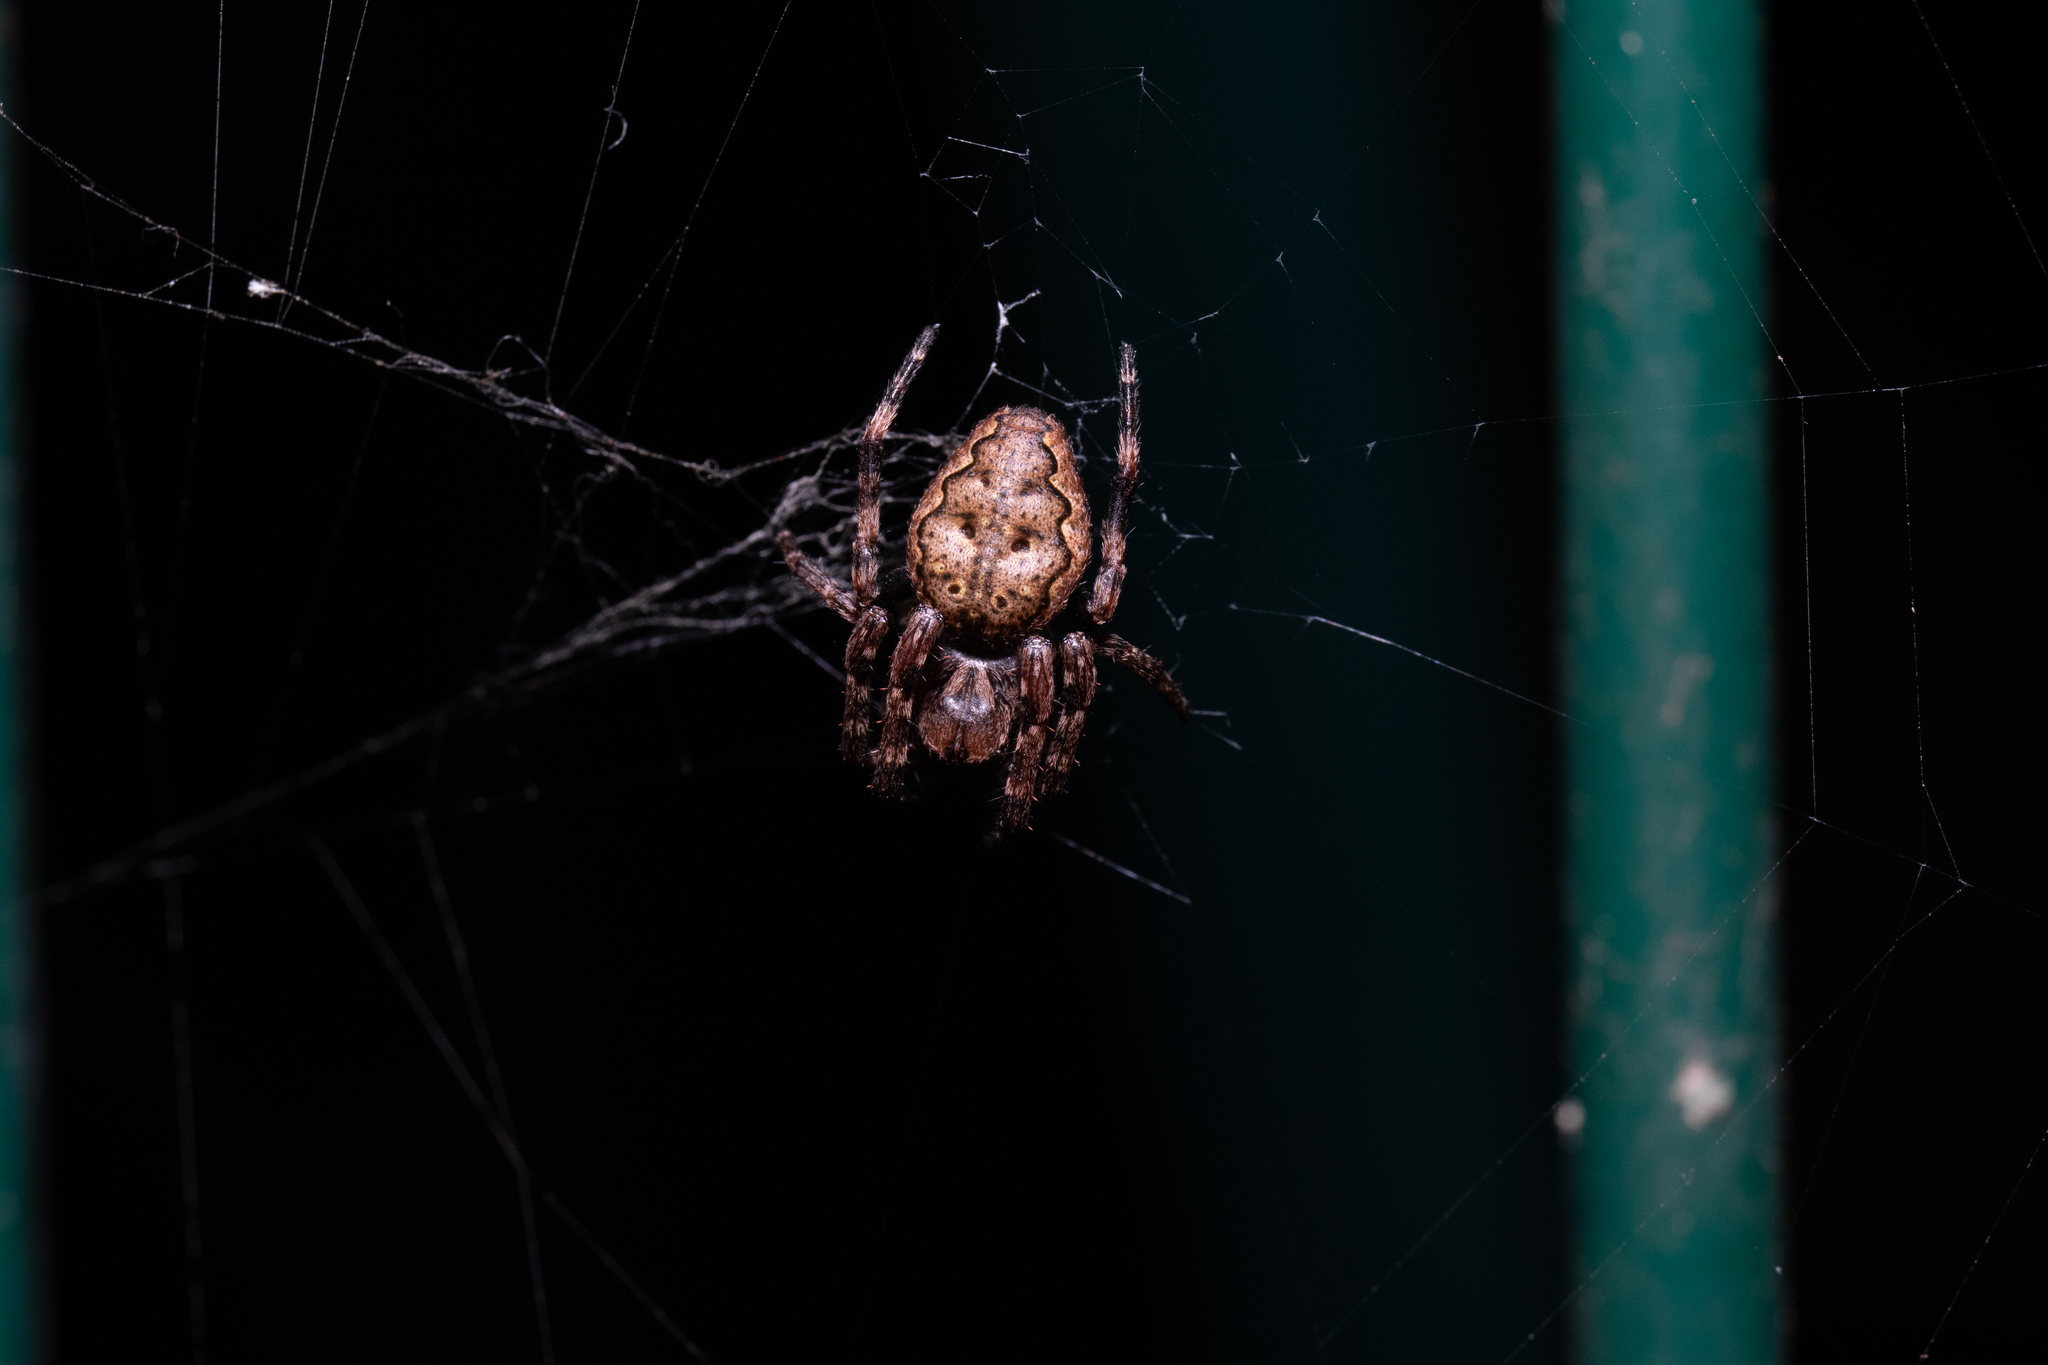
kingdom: Animalia
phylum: Arthropoda
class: Arachnida
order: Araneae
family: Araneidae
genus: Nuctenea
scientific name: Nuctenea umbratica
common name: Toad spider
